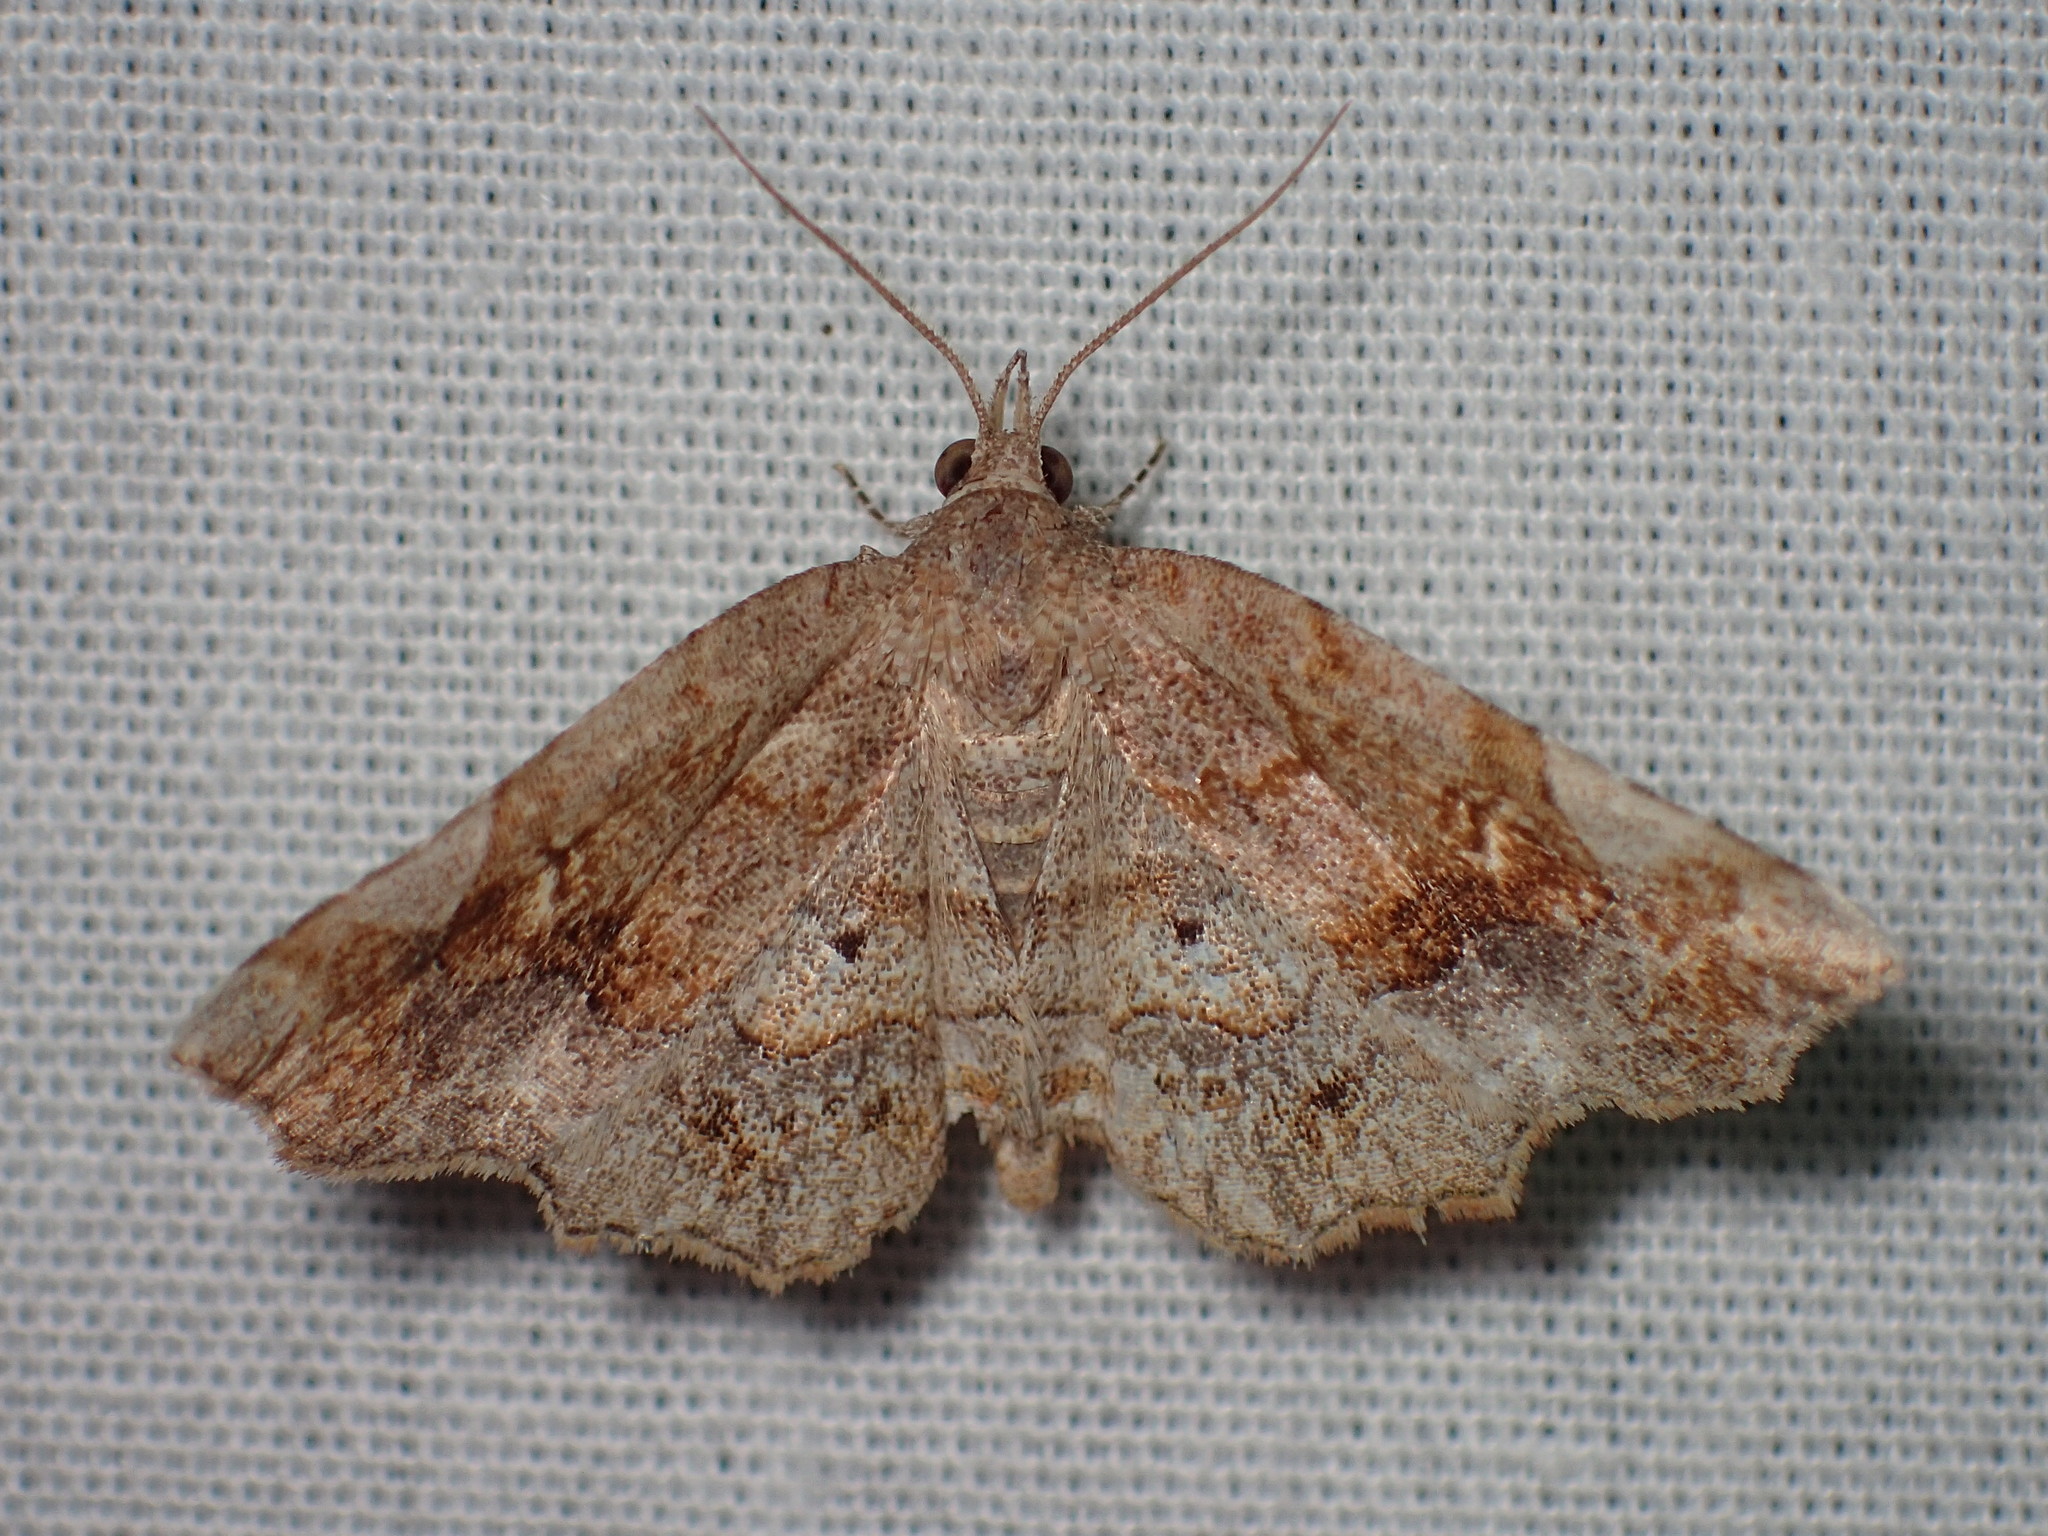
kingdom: Animalia
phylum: Arthropoda
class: Insecta
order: Lepidoptera
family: Erebidae
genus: Pangrapta
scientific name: Pangrapta decoralis
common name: Decorated owlet
